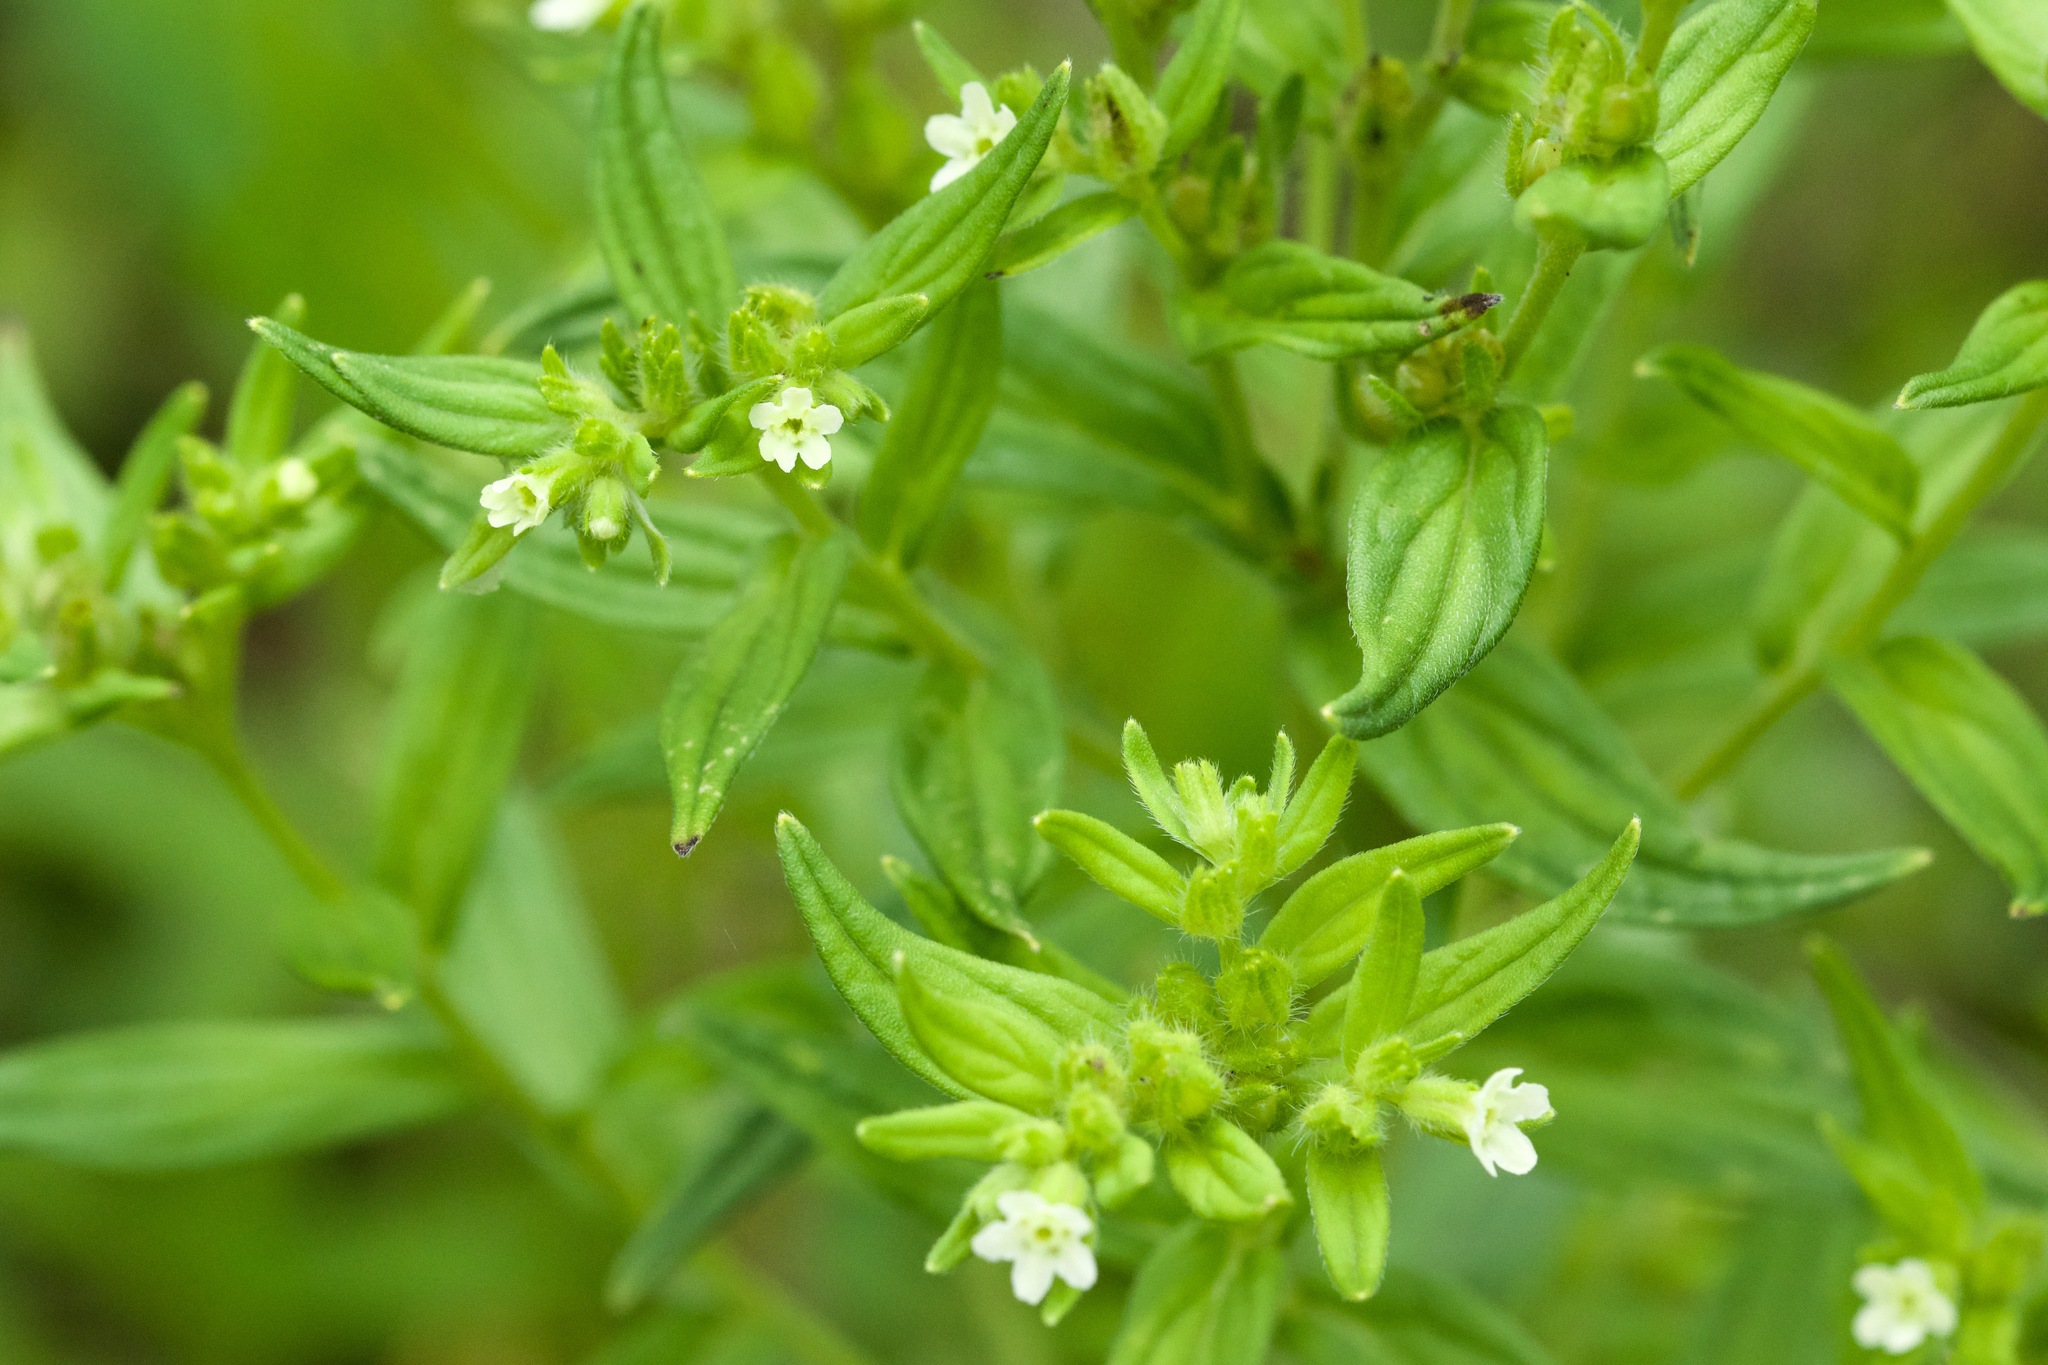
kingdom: Plantae
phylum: Tracheophyta
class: Magnoliopsida
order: Boraginales
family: Boraginaceae
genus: Lithospermum
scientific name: Lithospermum officinale
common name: Common gromwell
